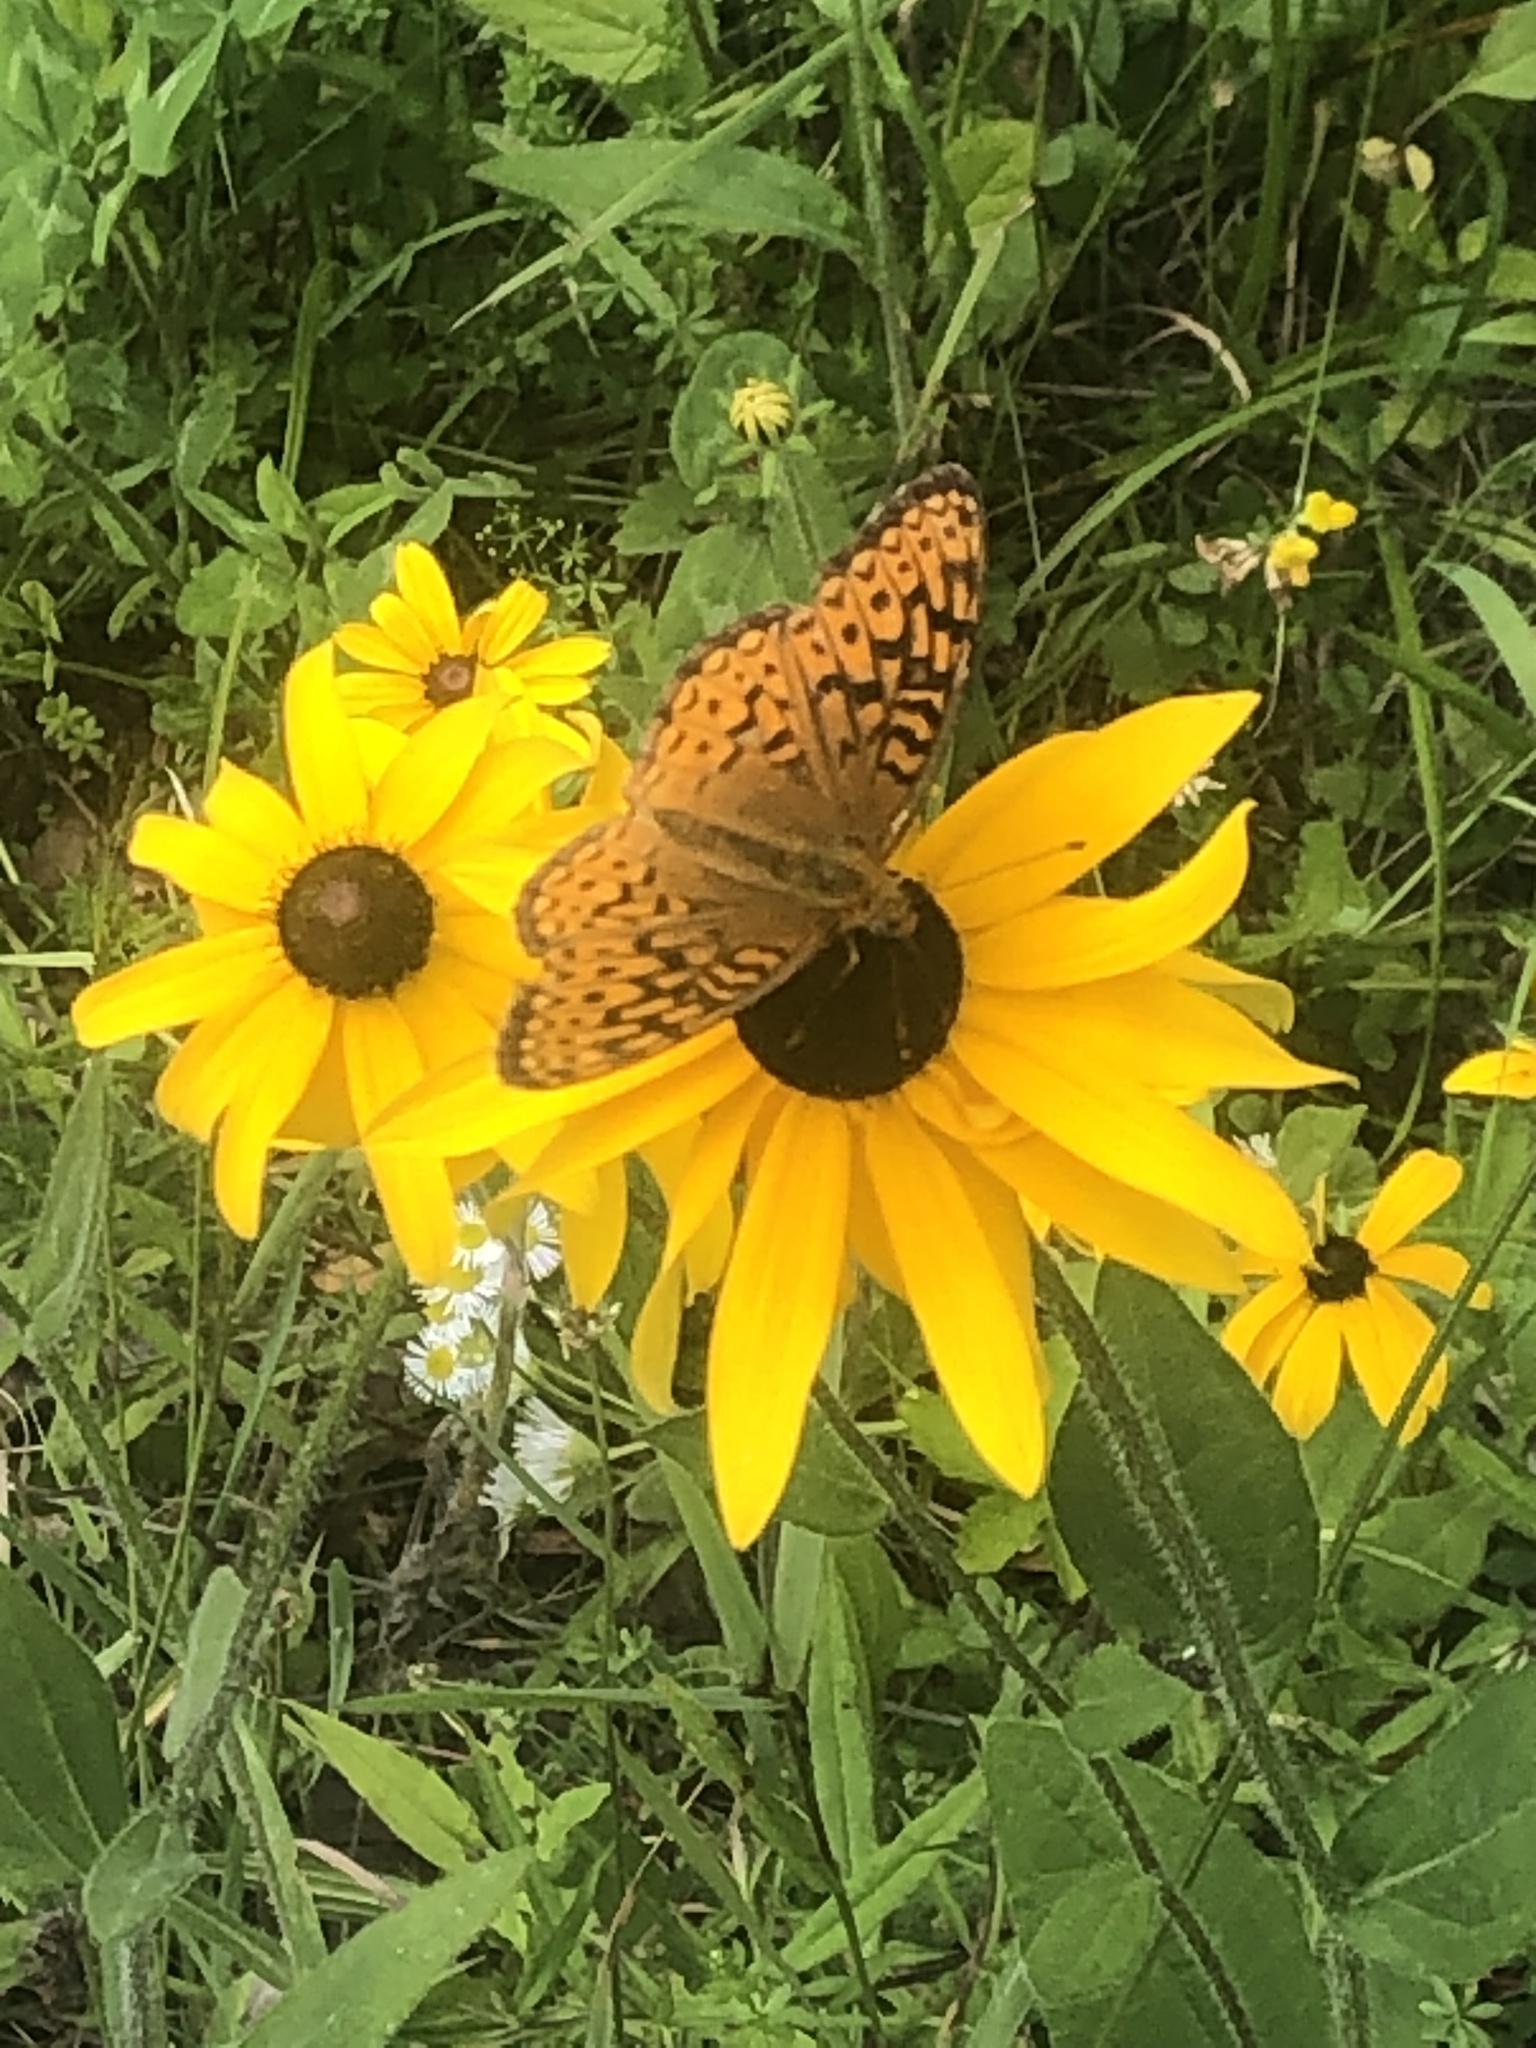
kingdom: Animalia
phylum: Arthropoda
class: Insecta
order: Lepidoptera
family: Nymphalidae
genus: Speyeria
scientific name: Speyeria atlantis
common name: Atlantis fritillary
